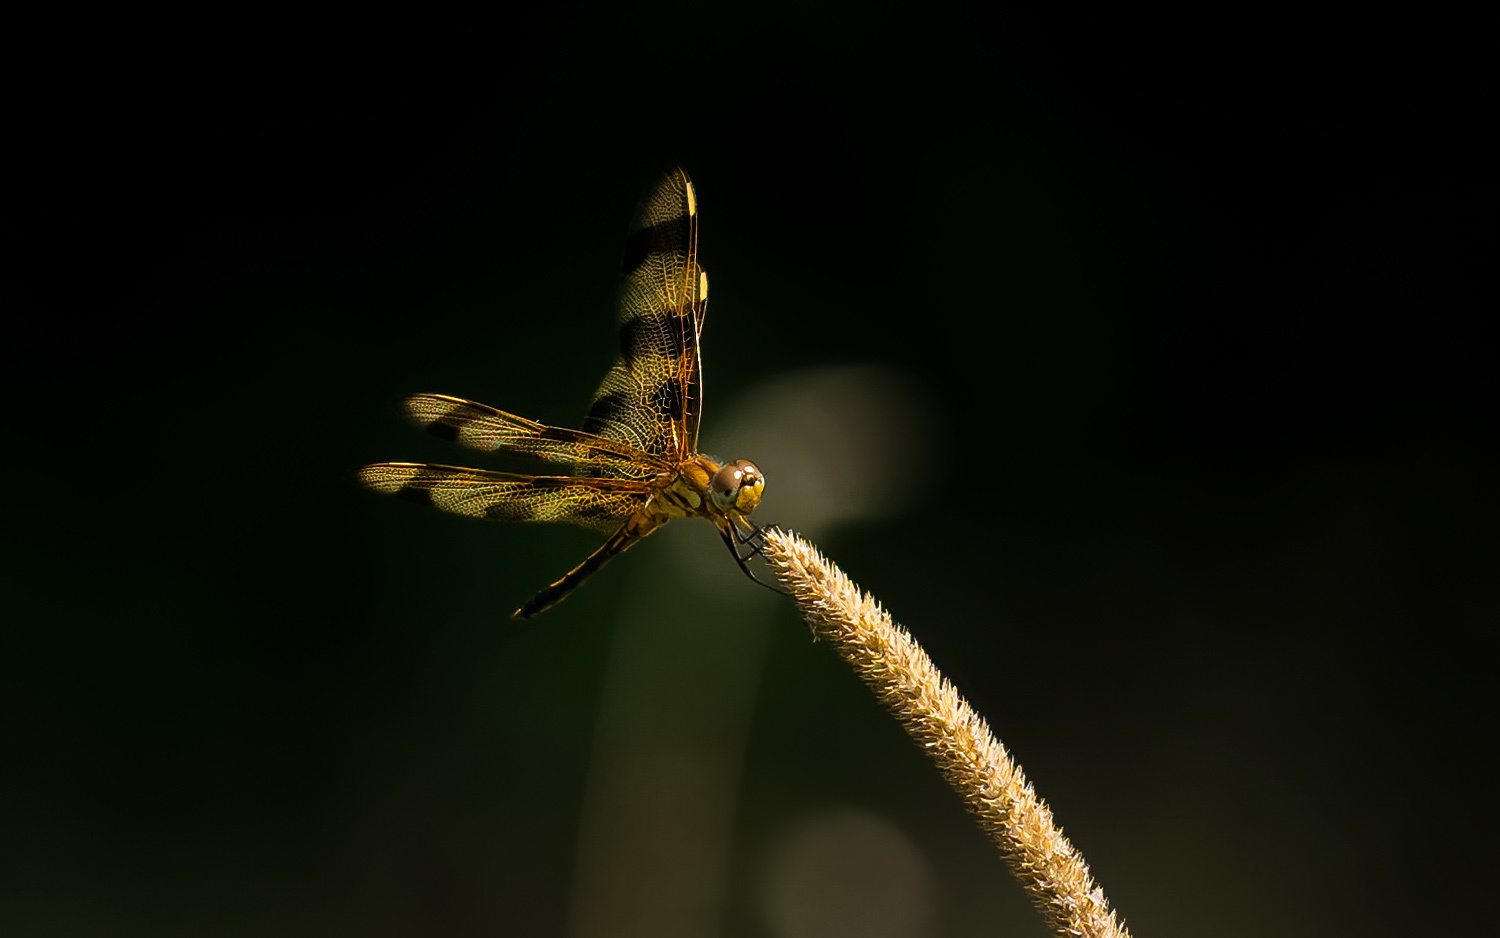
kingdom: Animalia
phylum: Arthropoda
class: Insecta
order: Odonata
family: Libellulidae
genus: Celithemis
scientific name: Celithemis eponina
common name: Halloween pennant
